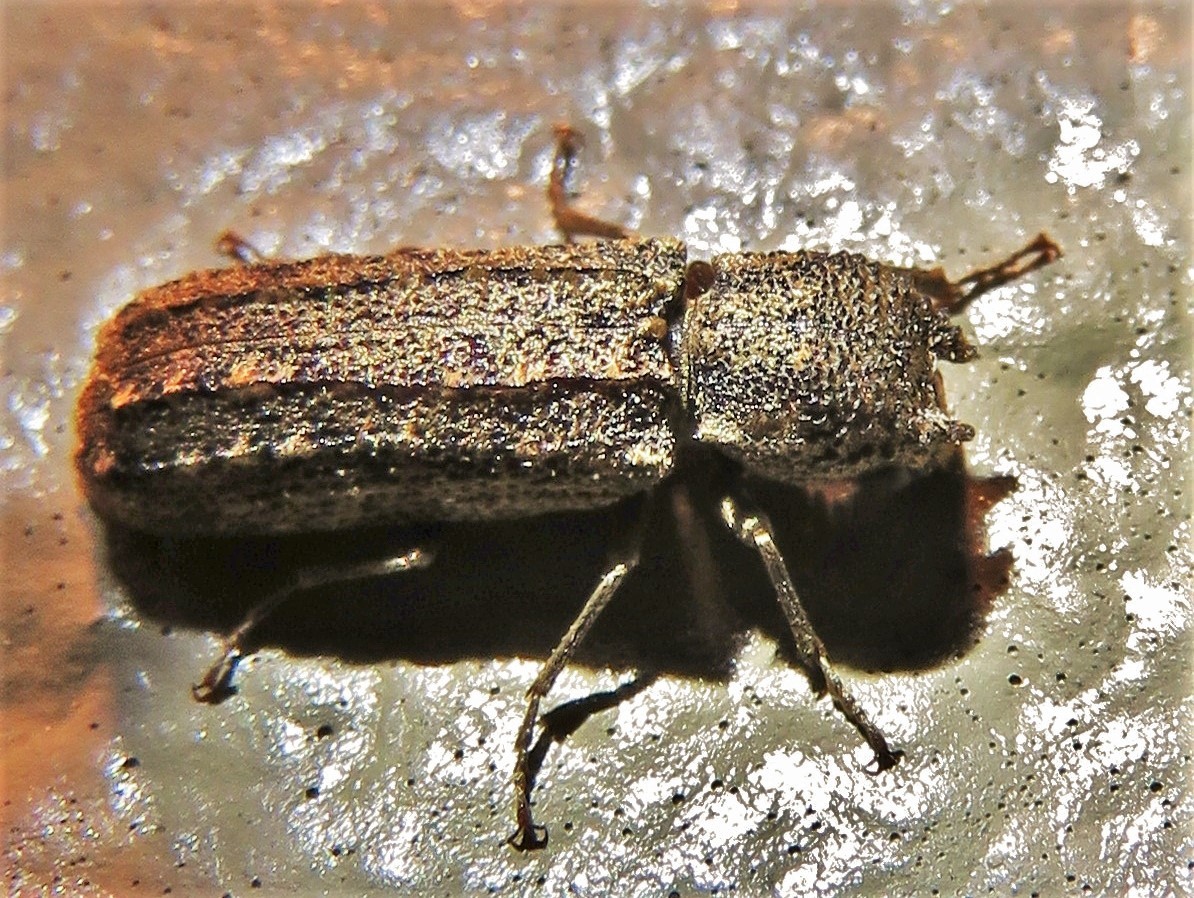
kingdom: Animalia
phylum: Arthropoda
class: Insecta
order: Coleoptera
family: Bostrichidae
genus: Lichenophanes
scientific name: Lichenophanes bicornis
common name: Two-horned powder-post beetle
